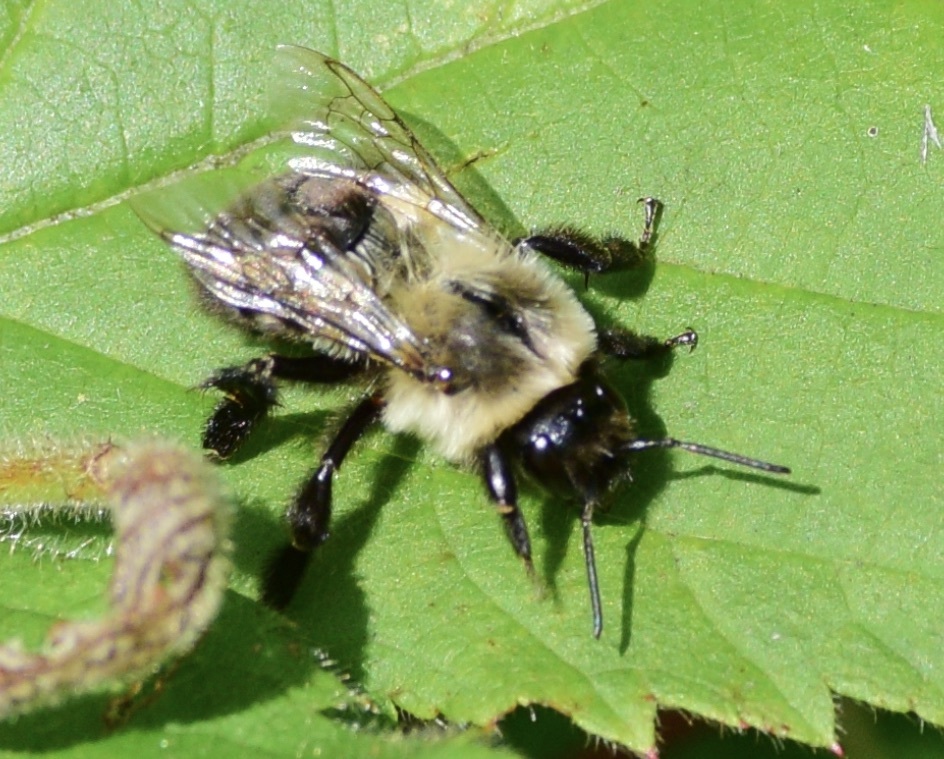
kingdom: Animalia
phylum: Arthropoda
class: Insecta
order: Hymenoptera
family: Apidae
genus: Bombus
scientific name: Bombus impatiens
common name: Common eastern bumble bee
